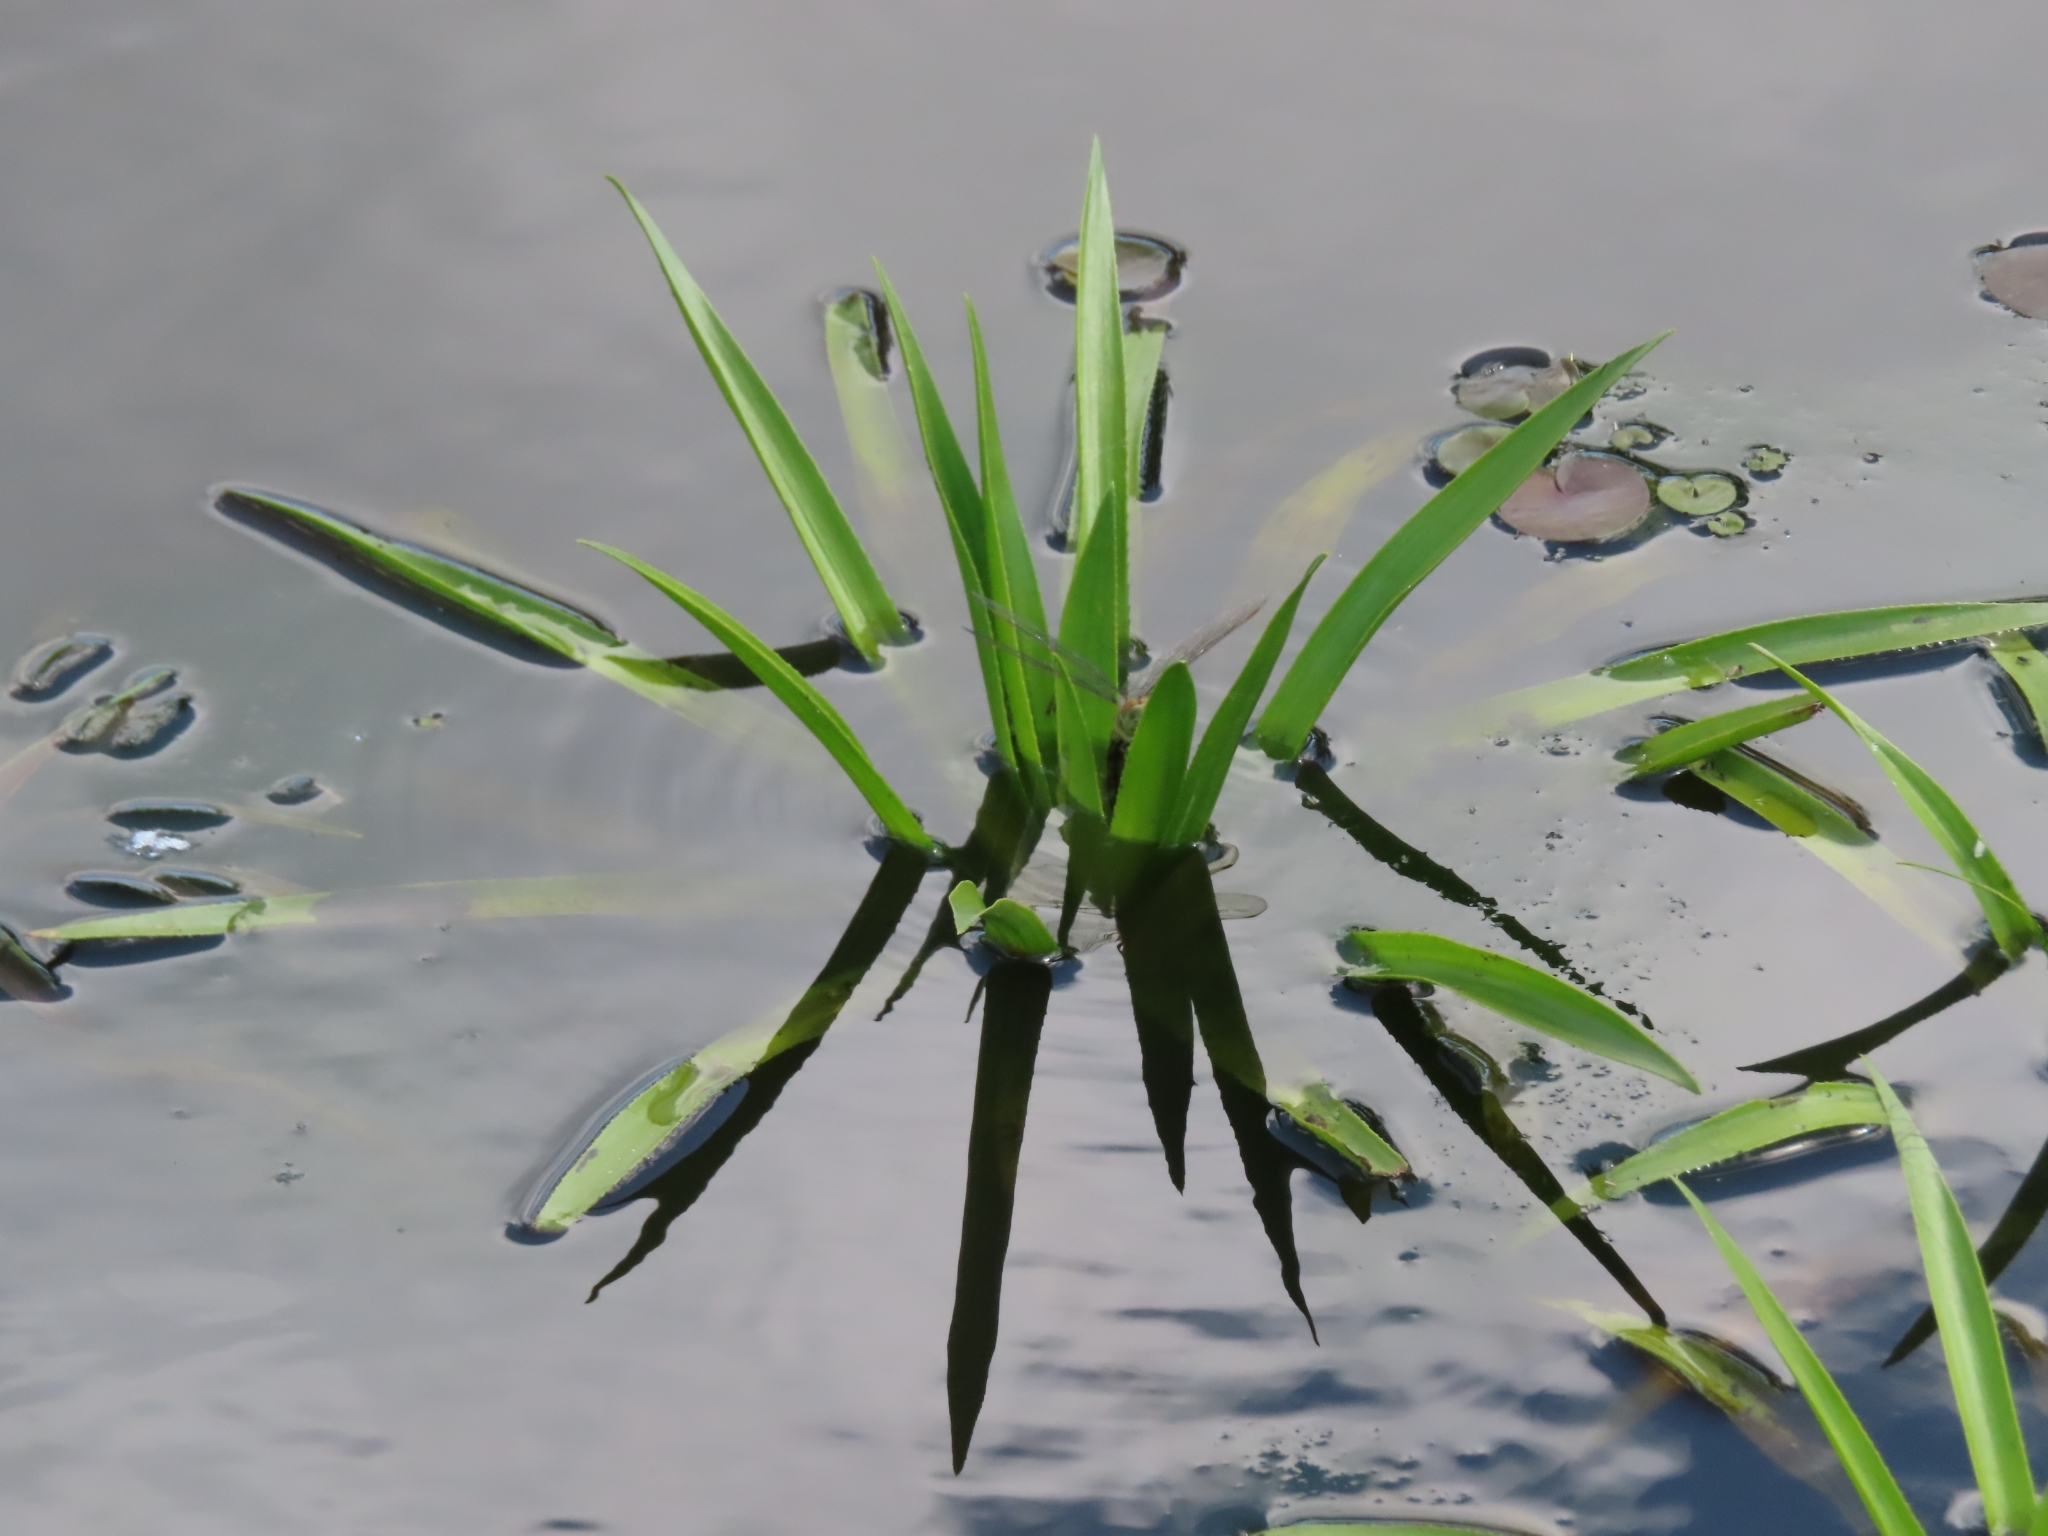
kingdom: Plantae
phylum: Tracheophyta
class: Liliopsida
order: Alismatales
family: Hydrocharitaceae
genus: Stratiotes
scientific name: Stratiotes aloides
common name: Water-soldier
